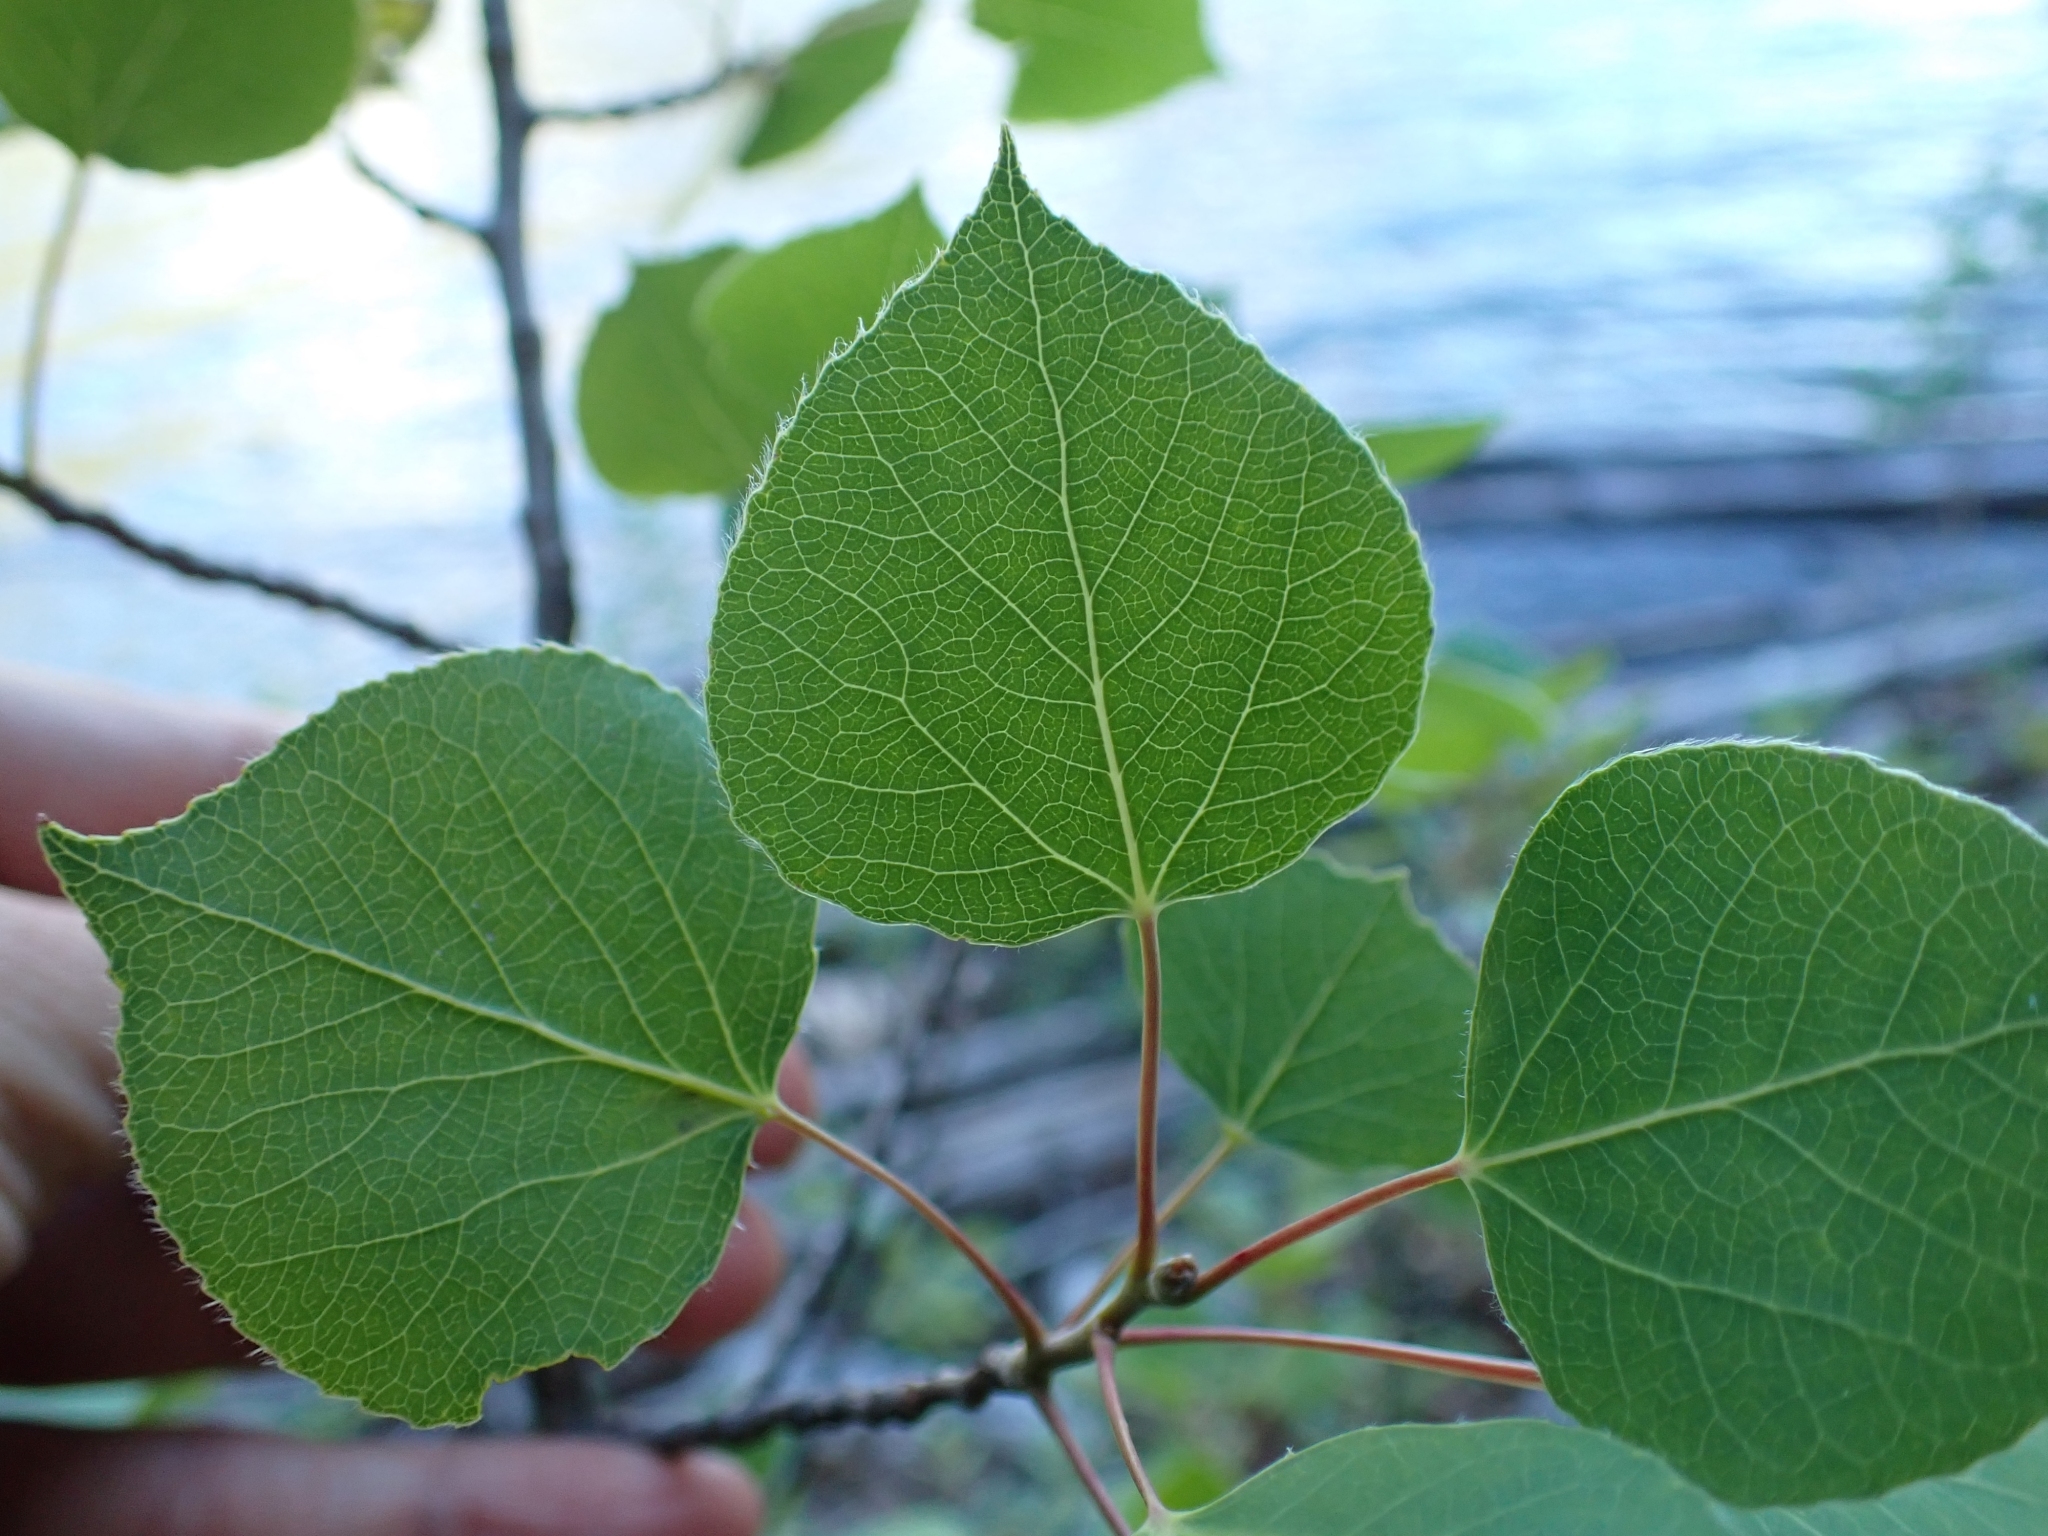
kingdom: Plantae
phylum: Tracheophyta
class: Magnoliopsida
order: Malpighiales
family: Salicaceae
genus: Populus
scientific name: Populus tremuloides
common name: Quaking aspen
